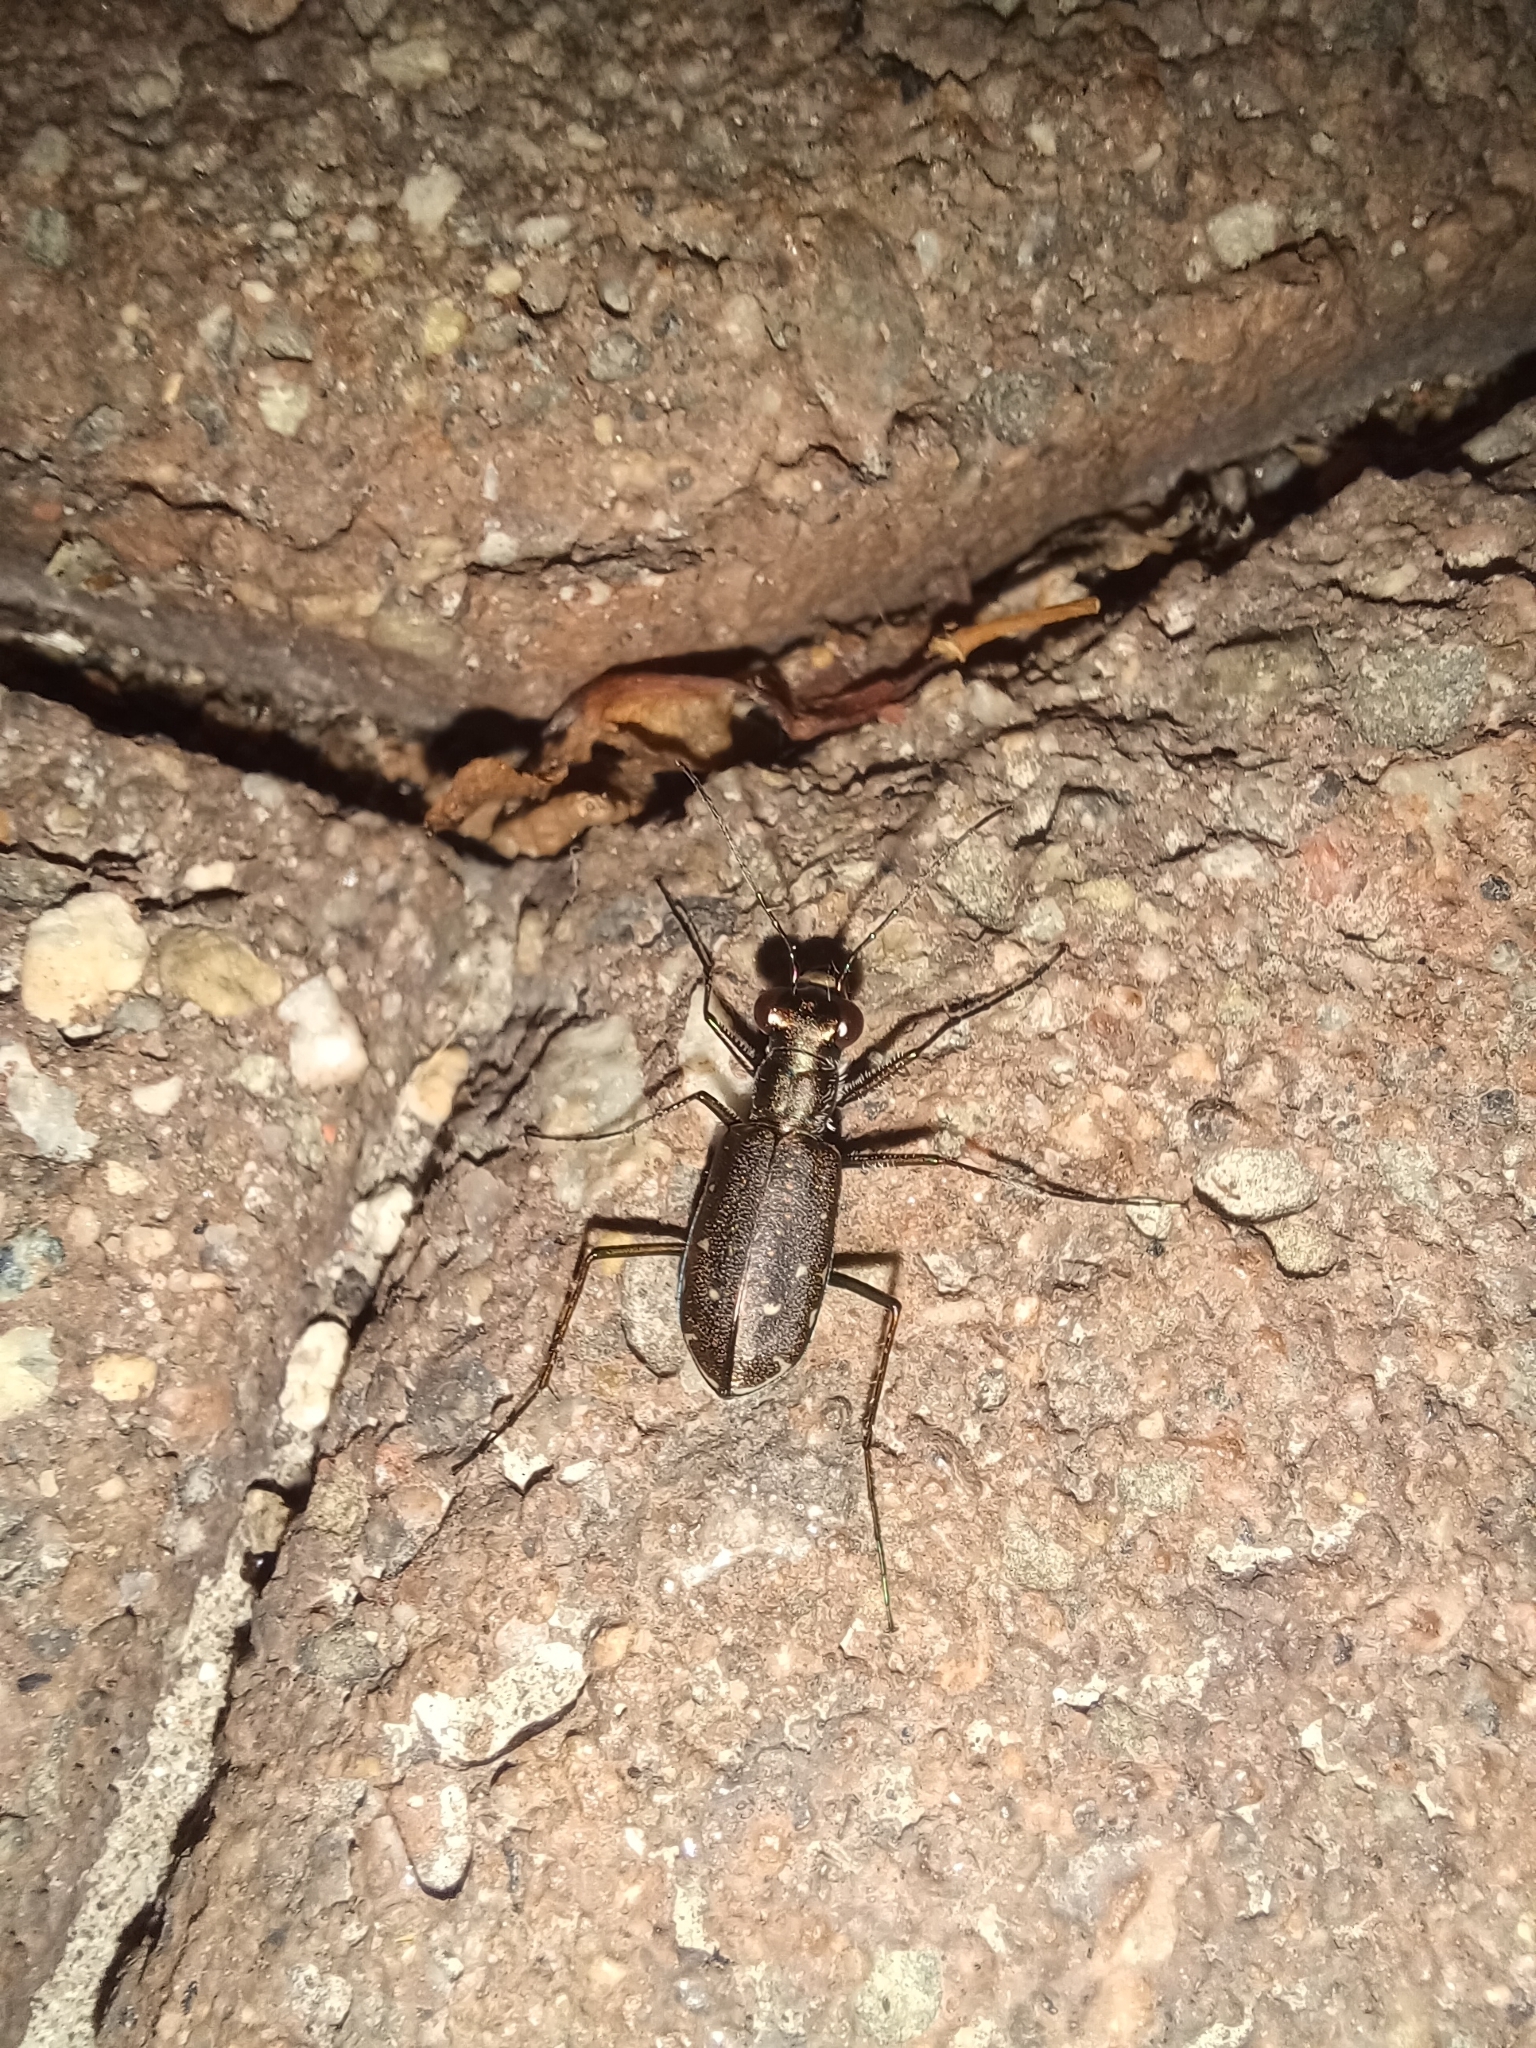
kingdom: Animalia
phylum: Arthropoda
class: Insecta
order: Coleoptera
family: Carabidae
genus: Cicindela
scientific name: Cicindela punctulata
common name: Punctured tiger beetle
